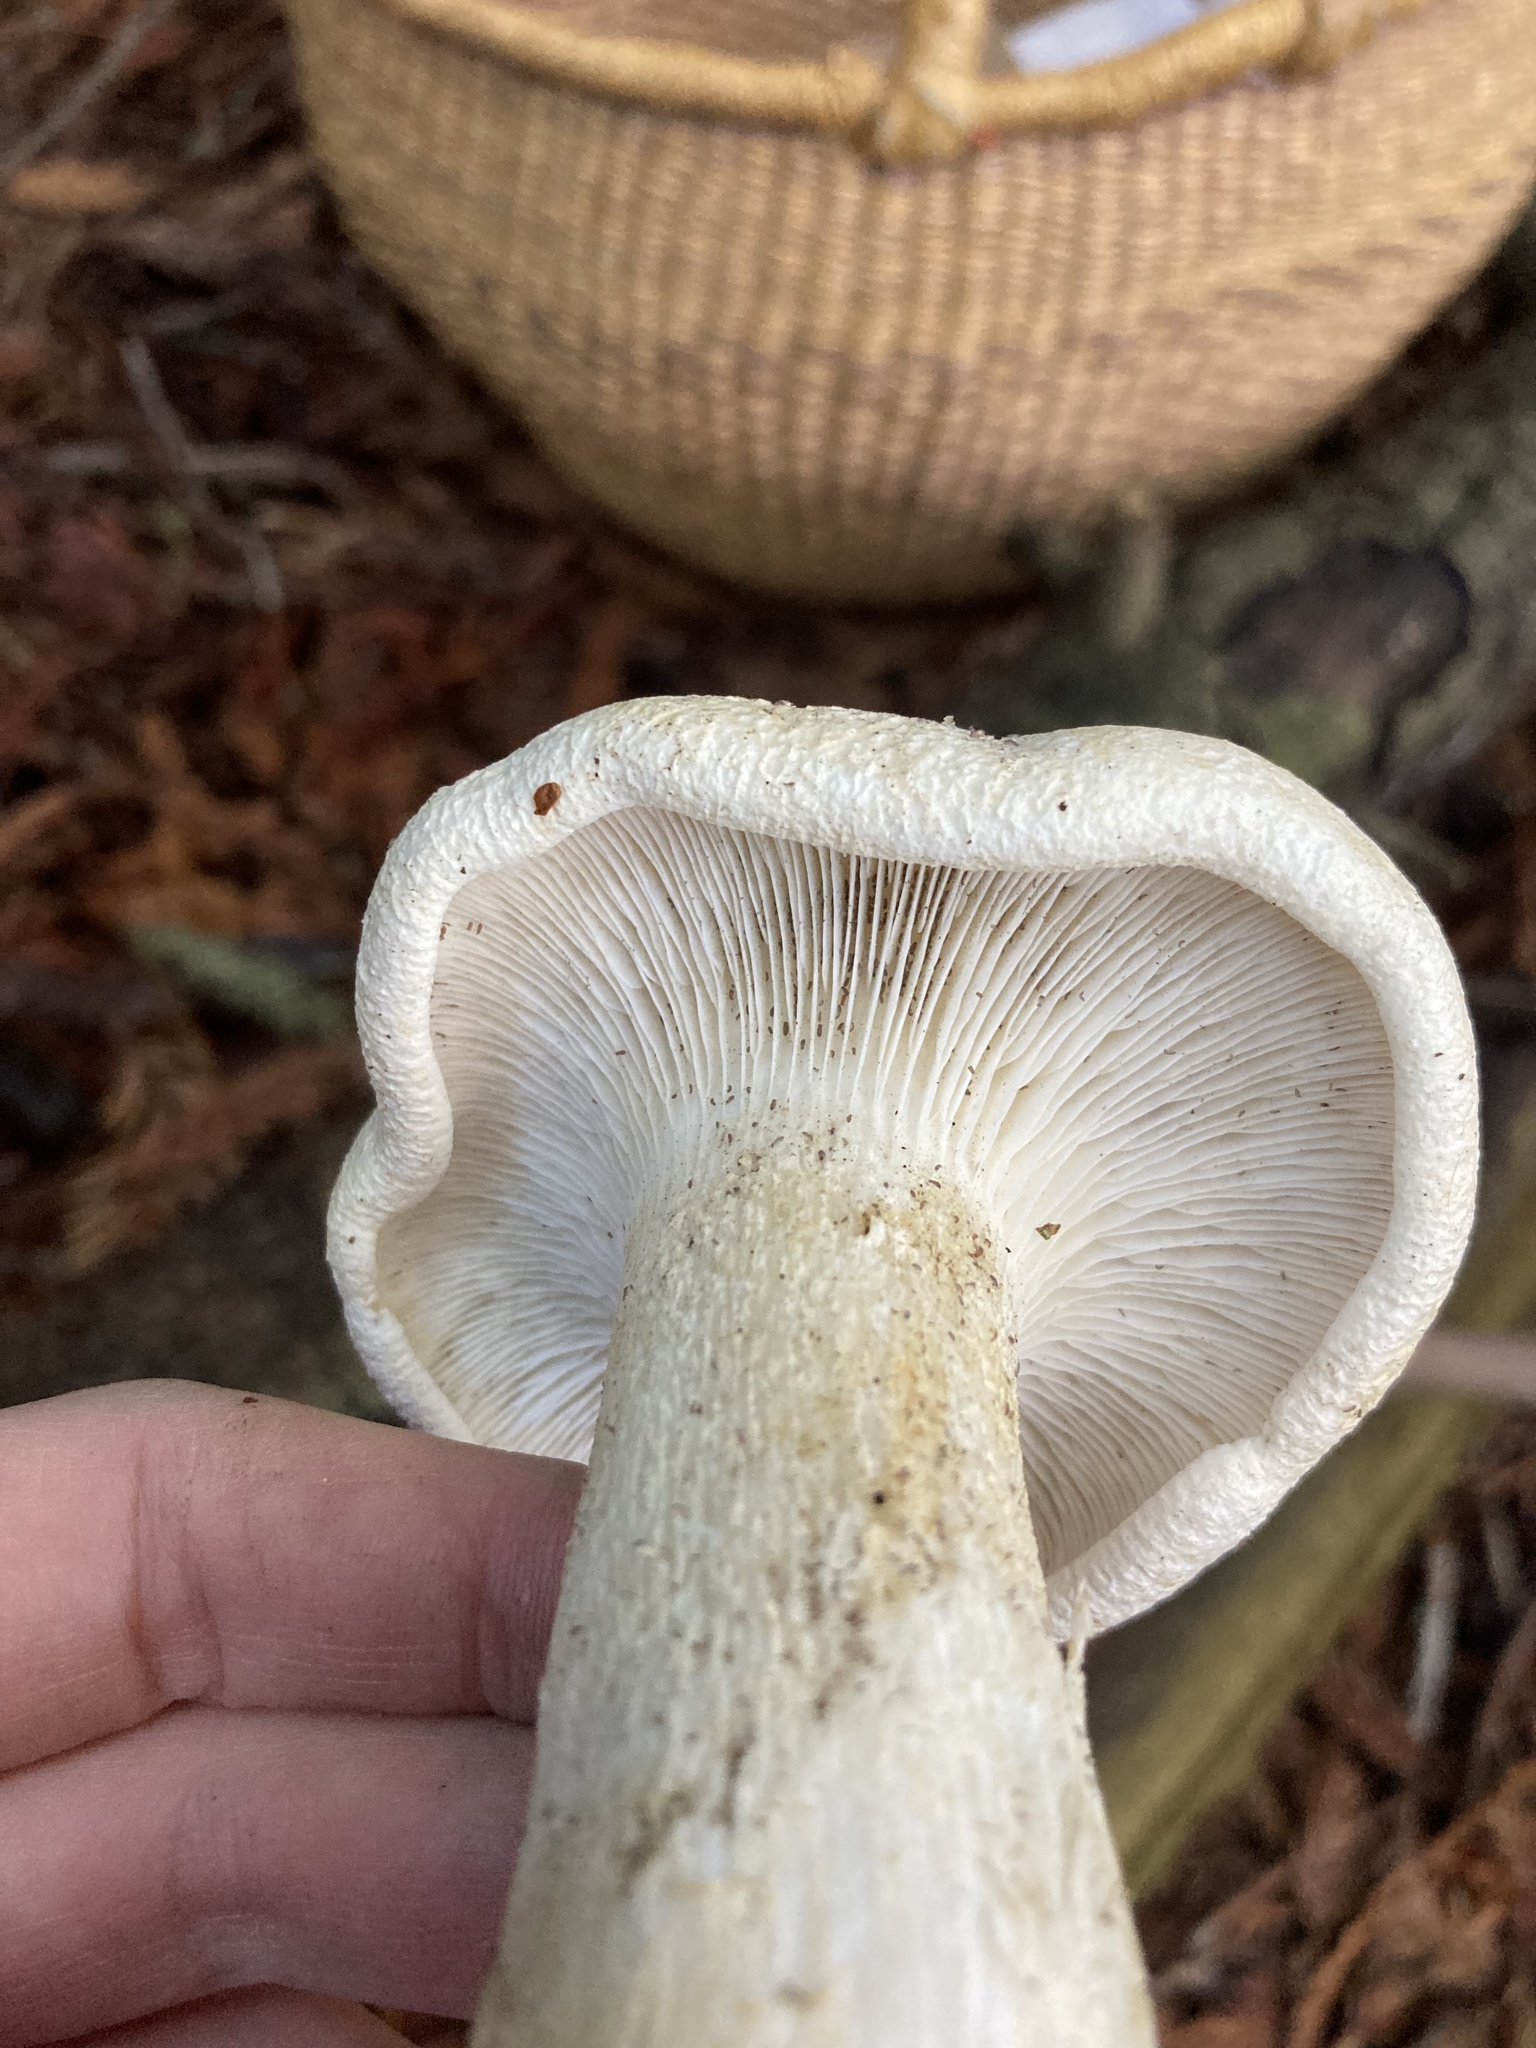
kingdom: Fungi
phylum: Basidiomycota
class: Agaricomycetes
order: Agaricales
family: Tricholomataceae
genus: Leucopaxillus
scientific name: Leucopaxillus albissimus
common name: Large white leucopax
